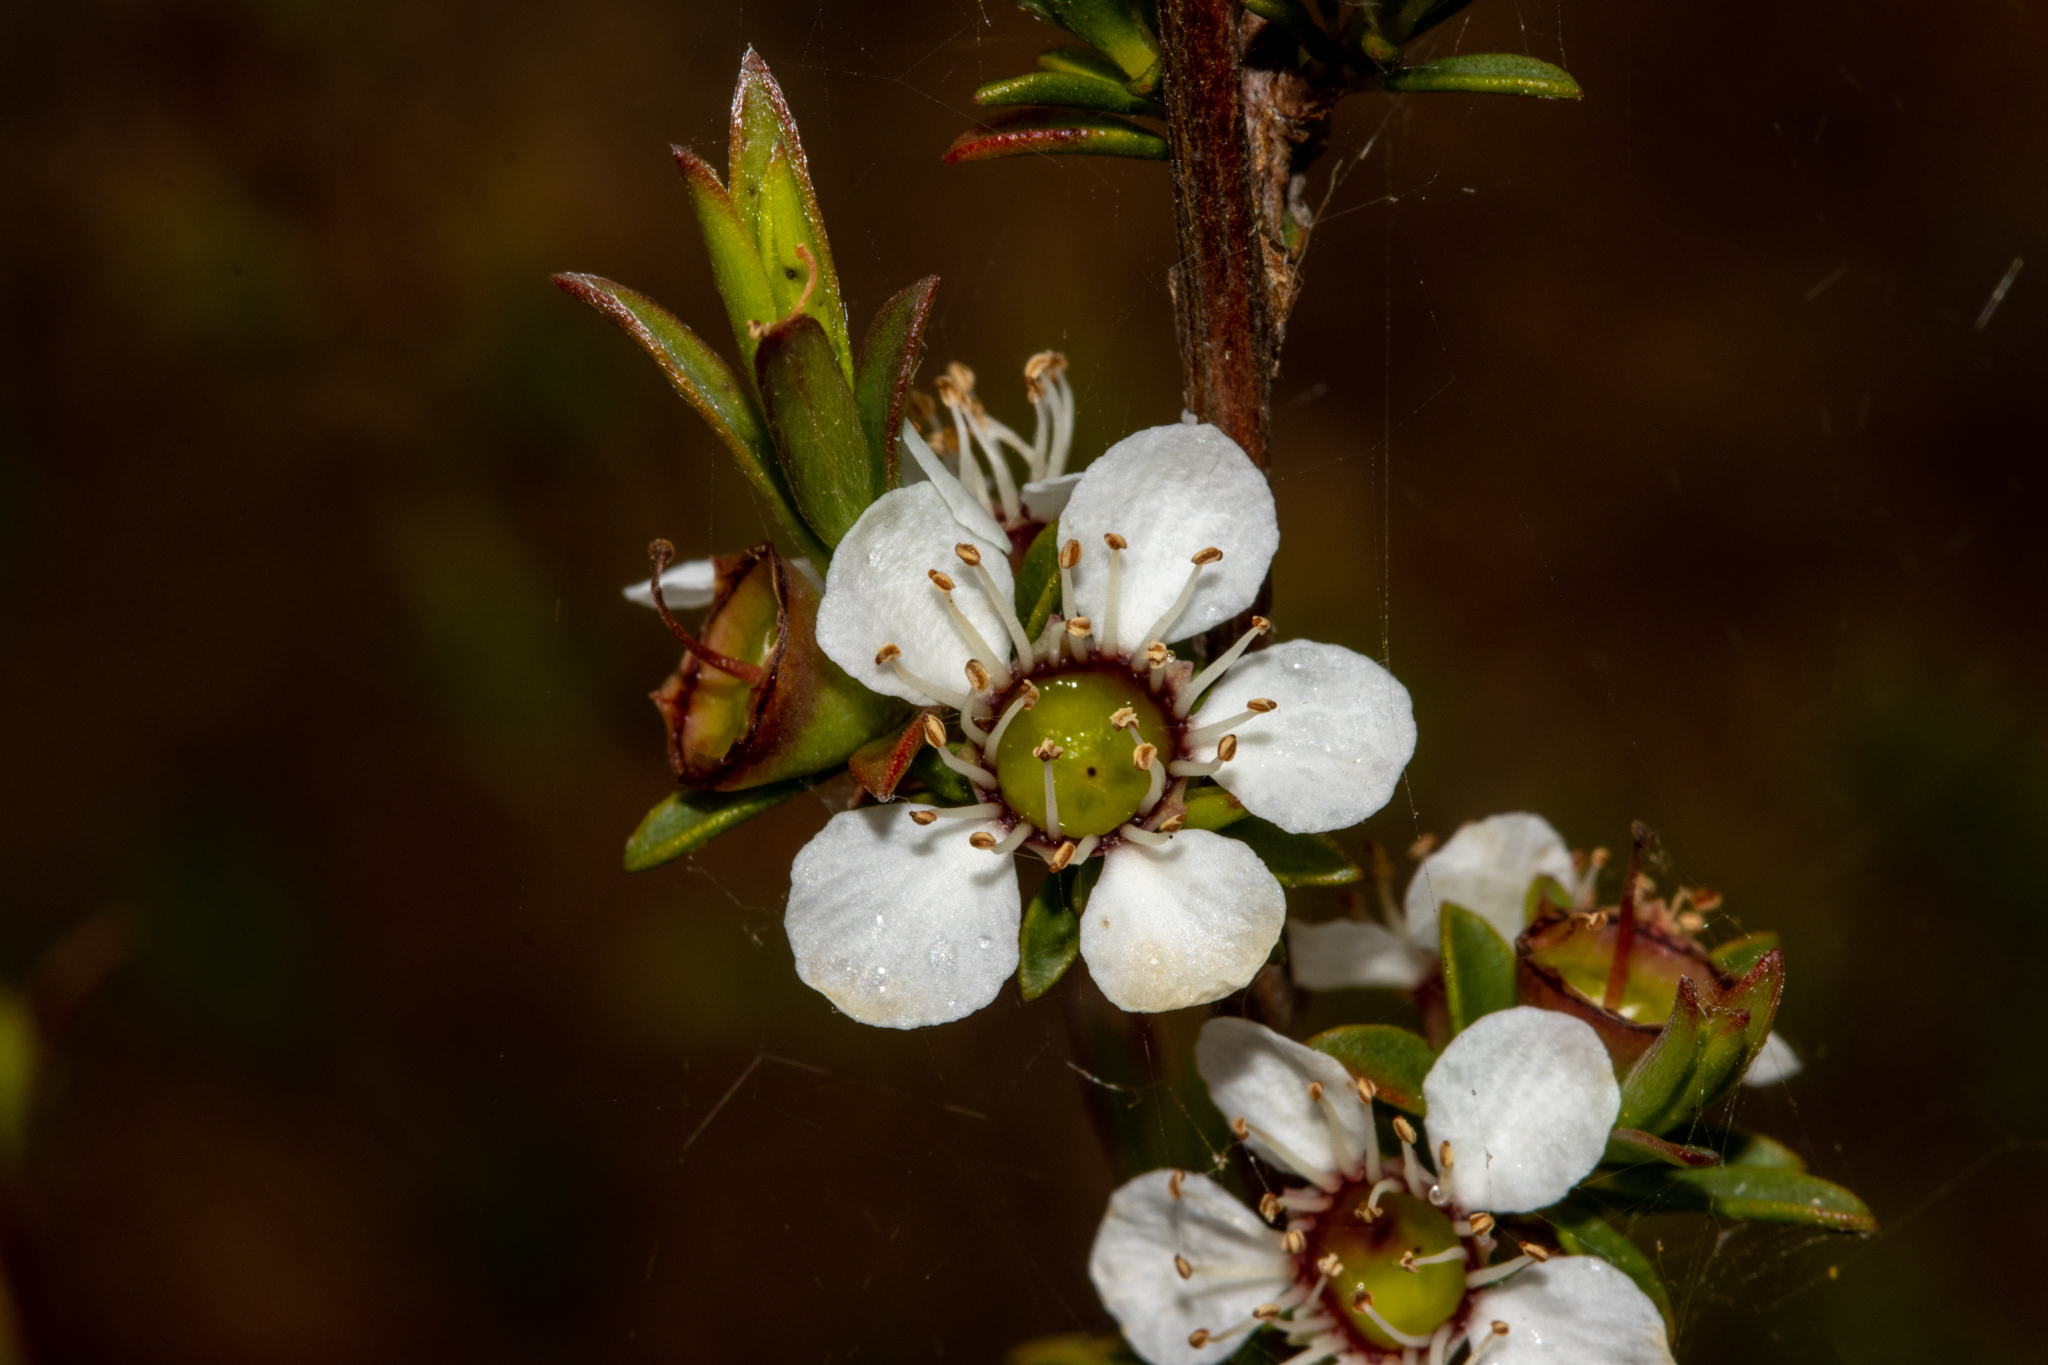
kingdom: Plantae
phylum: Tracheophyta
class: Magnoliopsida
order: Myrtales
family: Myrtaceae
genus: Leptospermum
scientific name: Leptospermum myrsinoides
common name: Heath teatree
